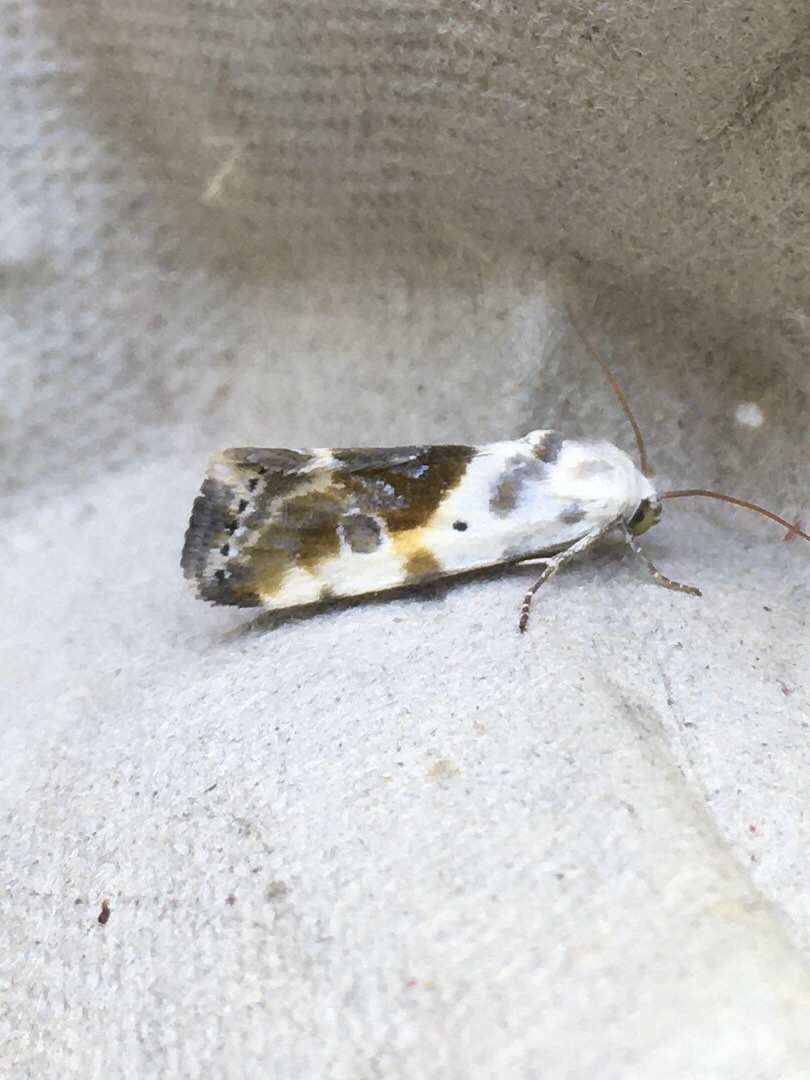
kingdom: Animalia
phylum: Arthropoda
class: Insecta
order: Lepidoptera
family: Noctuidae
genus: Acontia
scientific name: Acontia candefacta
